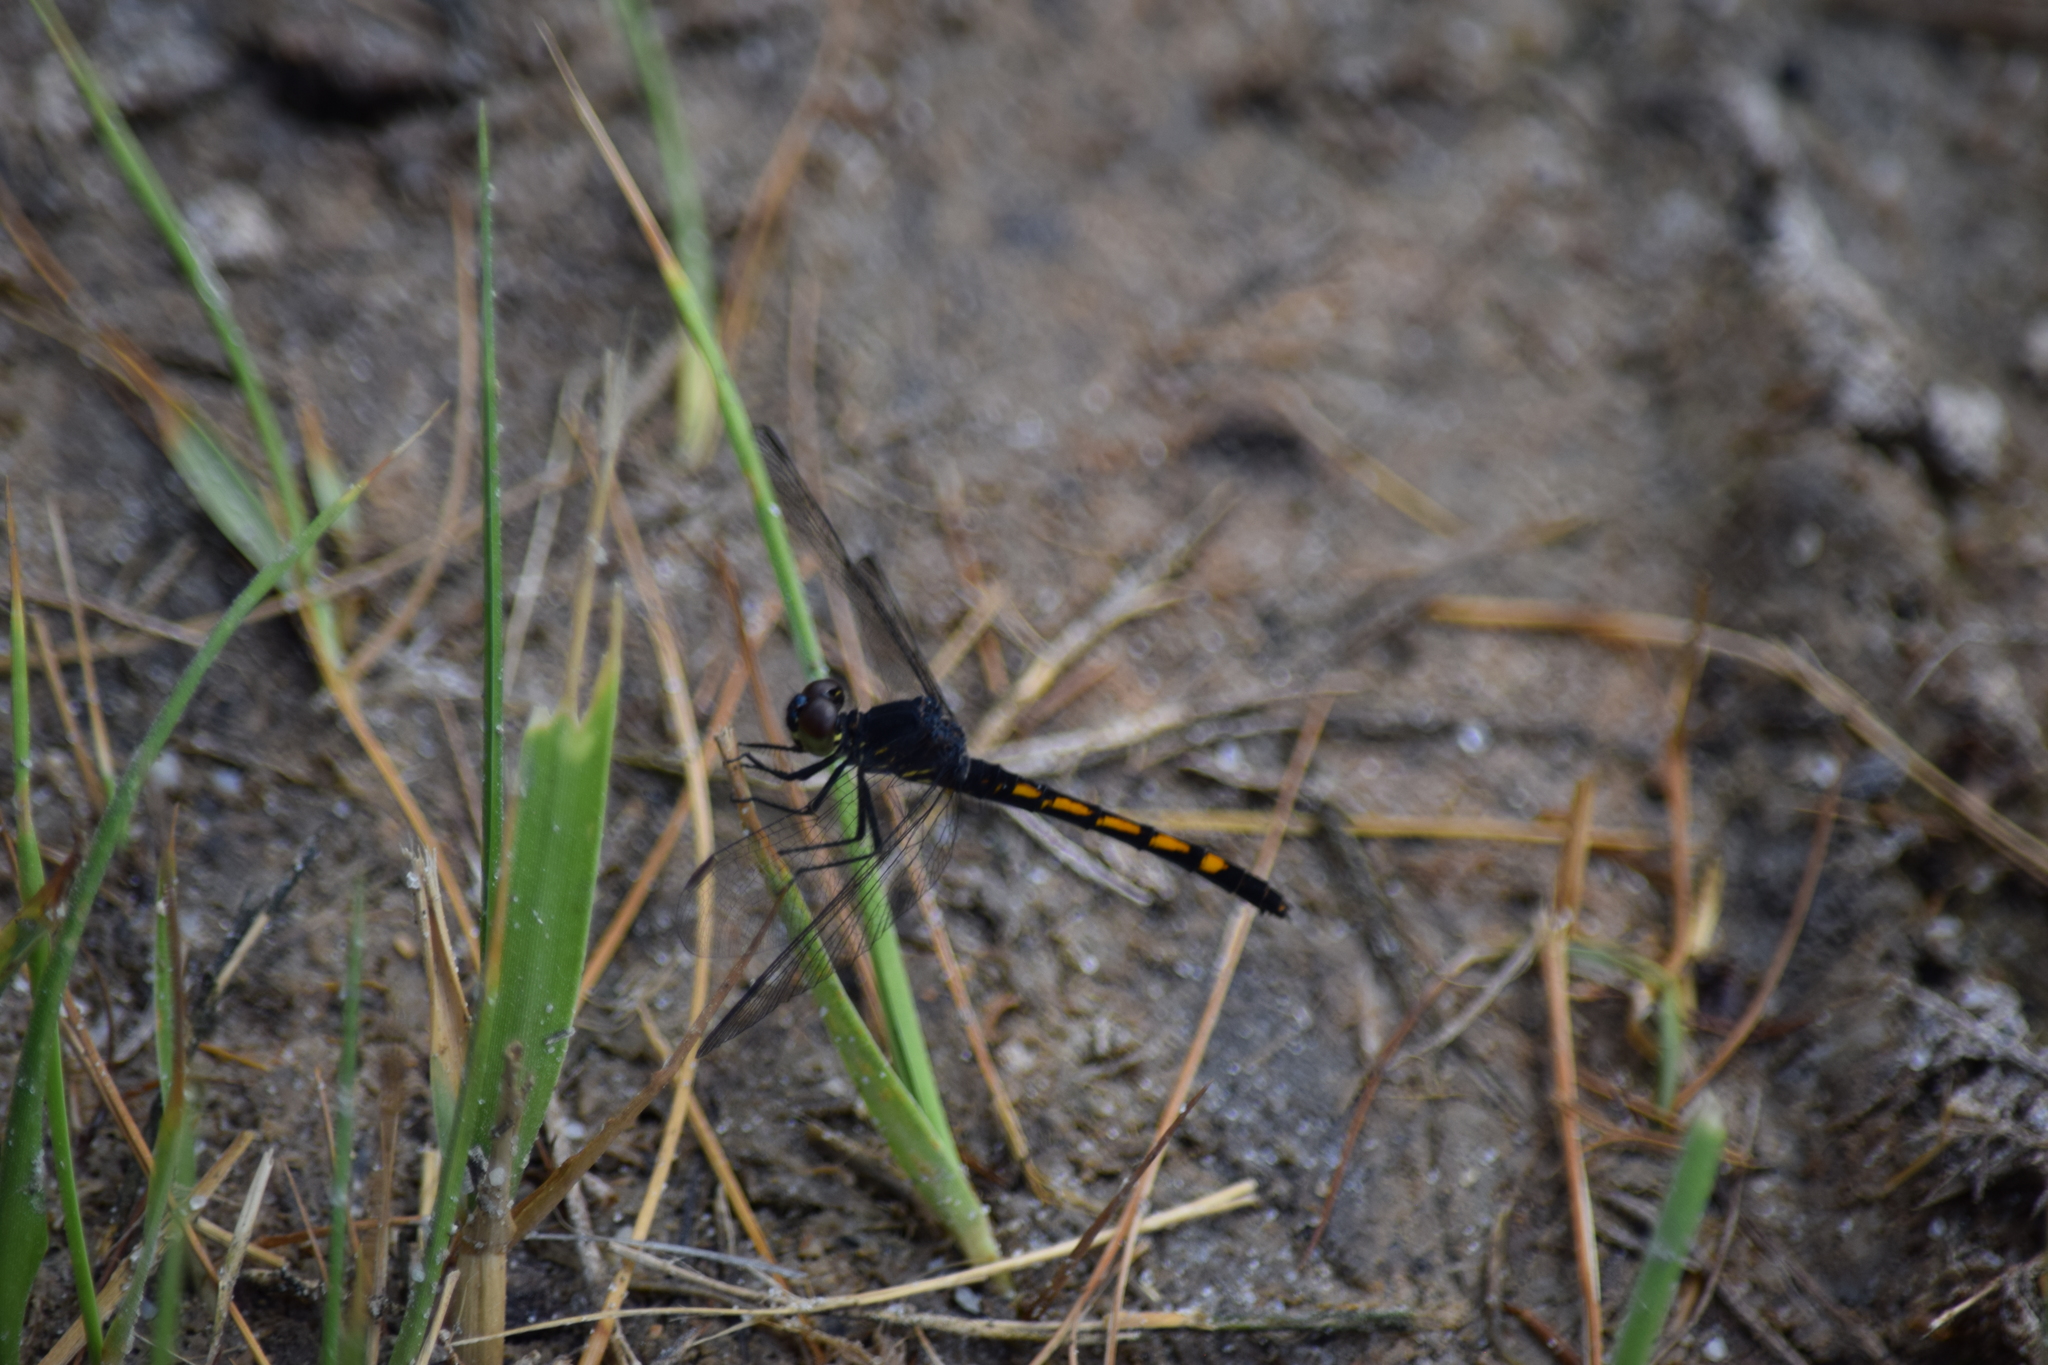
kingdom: Animalia
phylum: Arthropoda
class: Insecta
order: Odonata
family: Libellulidae
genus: Erythrodiplax
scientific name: Erythrodiplax berenice
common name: Seaside dragonlet
